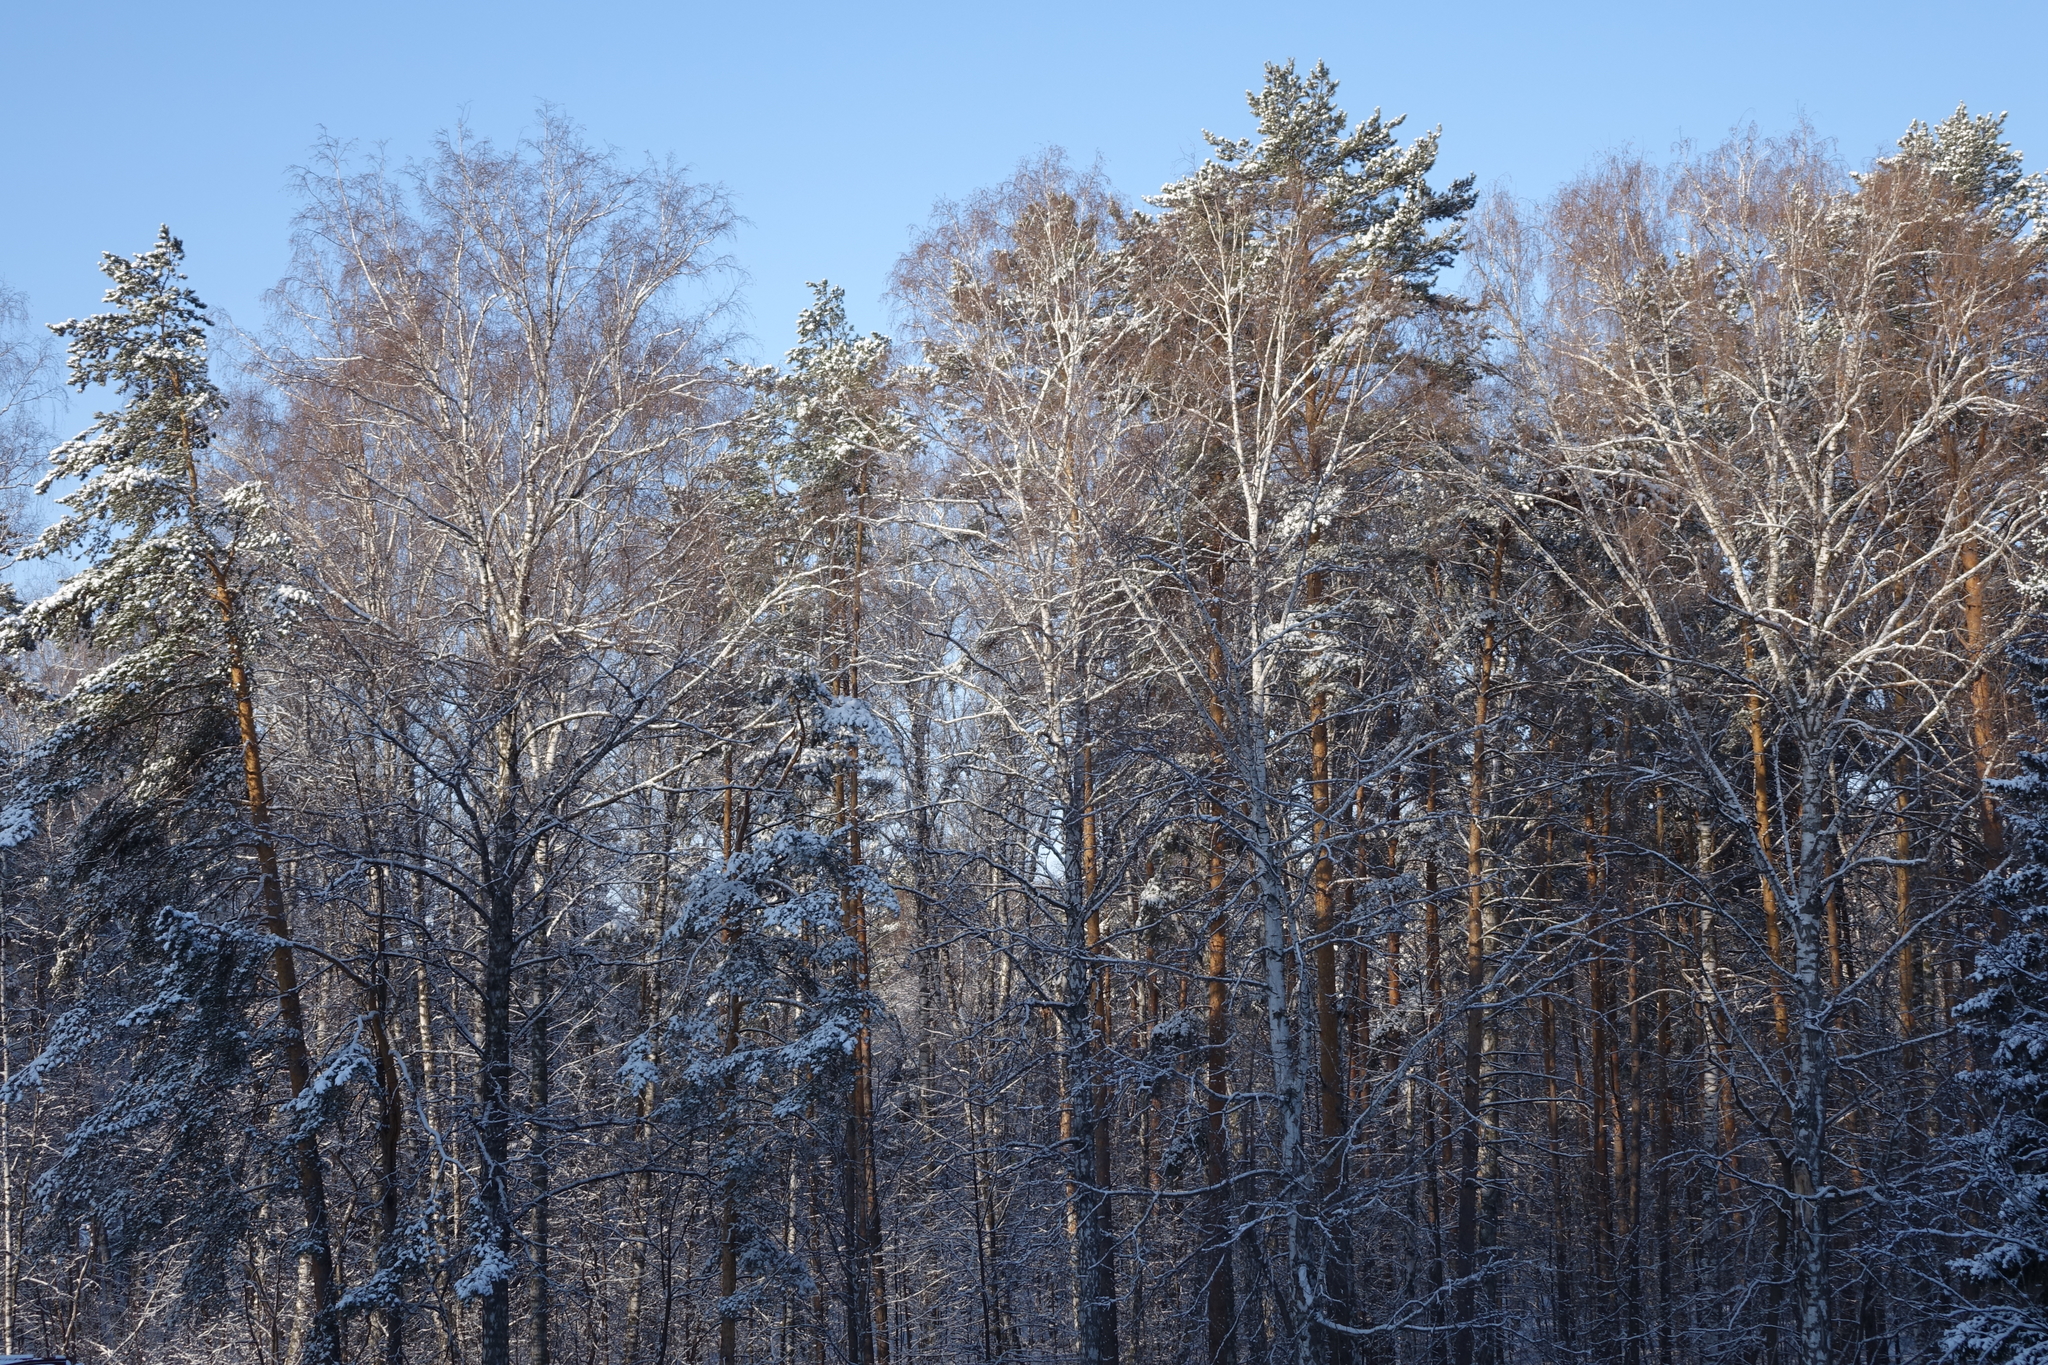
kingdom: Plantae
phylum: Tracheophyta
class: Pinopsida
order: Pinales
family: Pinaceae
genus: Pinus
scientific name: Pinus sylvestris
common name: Scots pine
